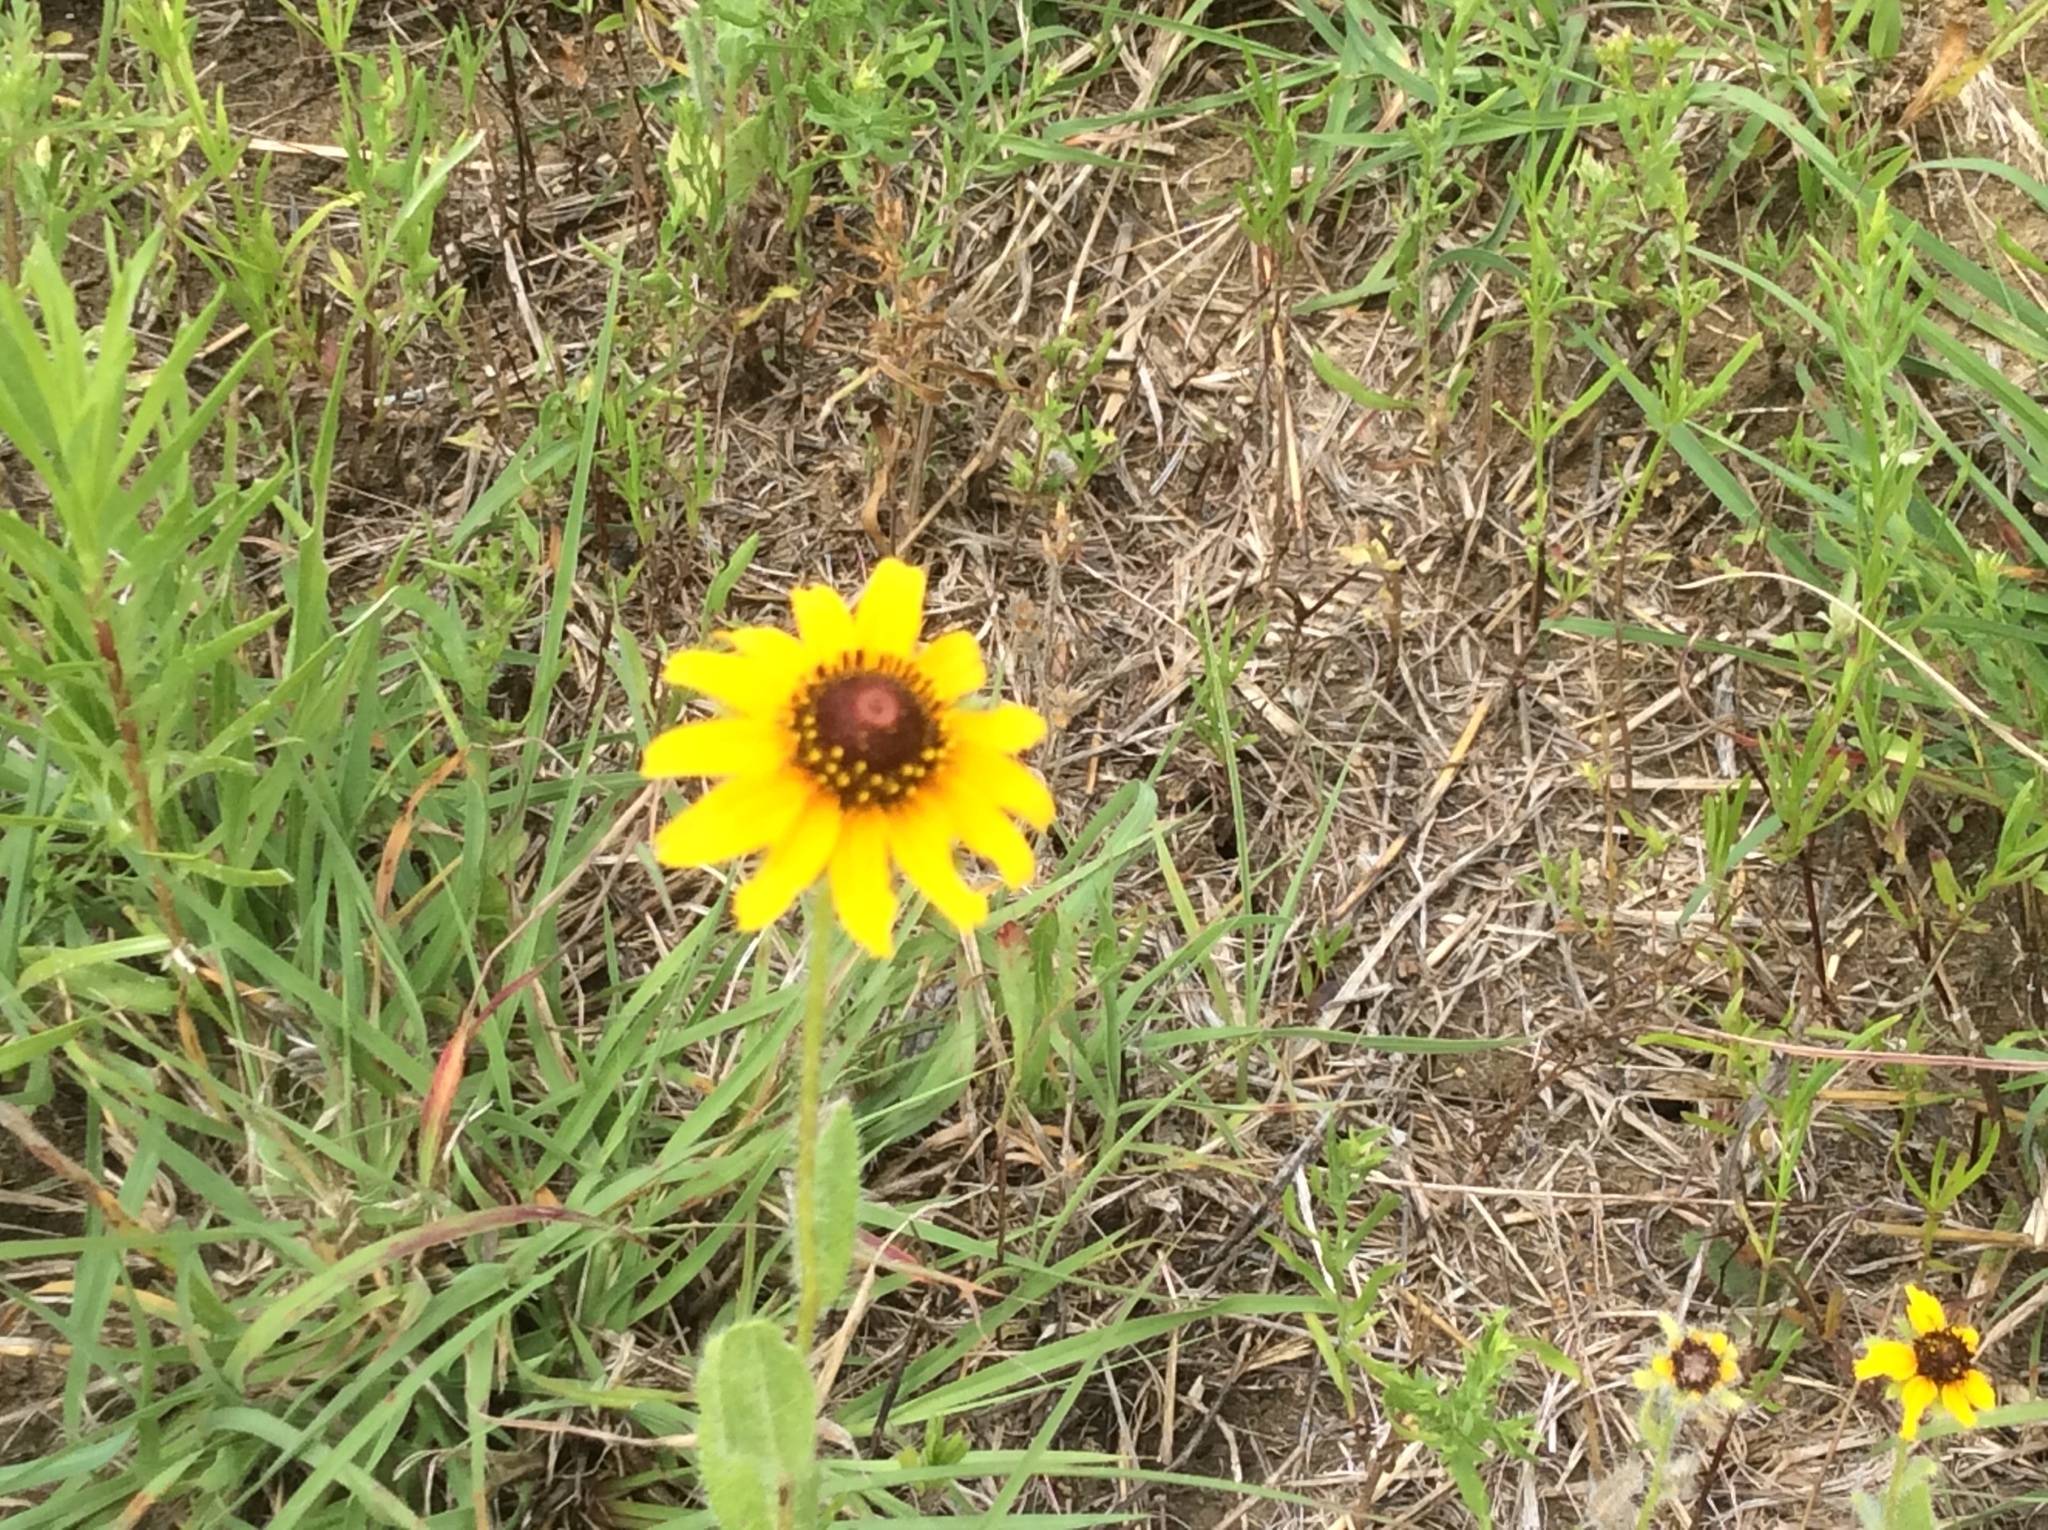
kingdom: Plantae
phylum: Tracheophyta
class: Magnoliopsida
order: Asterales
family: Asteraceae
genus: Rudbeckia
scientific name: Rudbeckia hirta
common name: Black-eyed-susan
